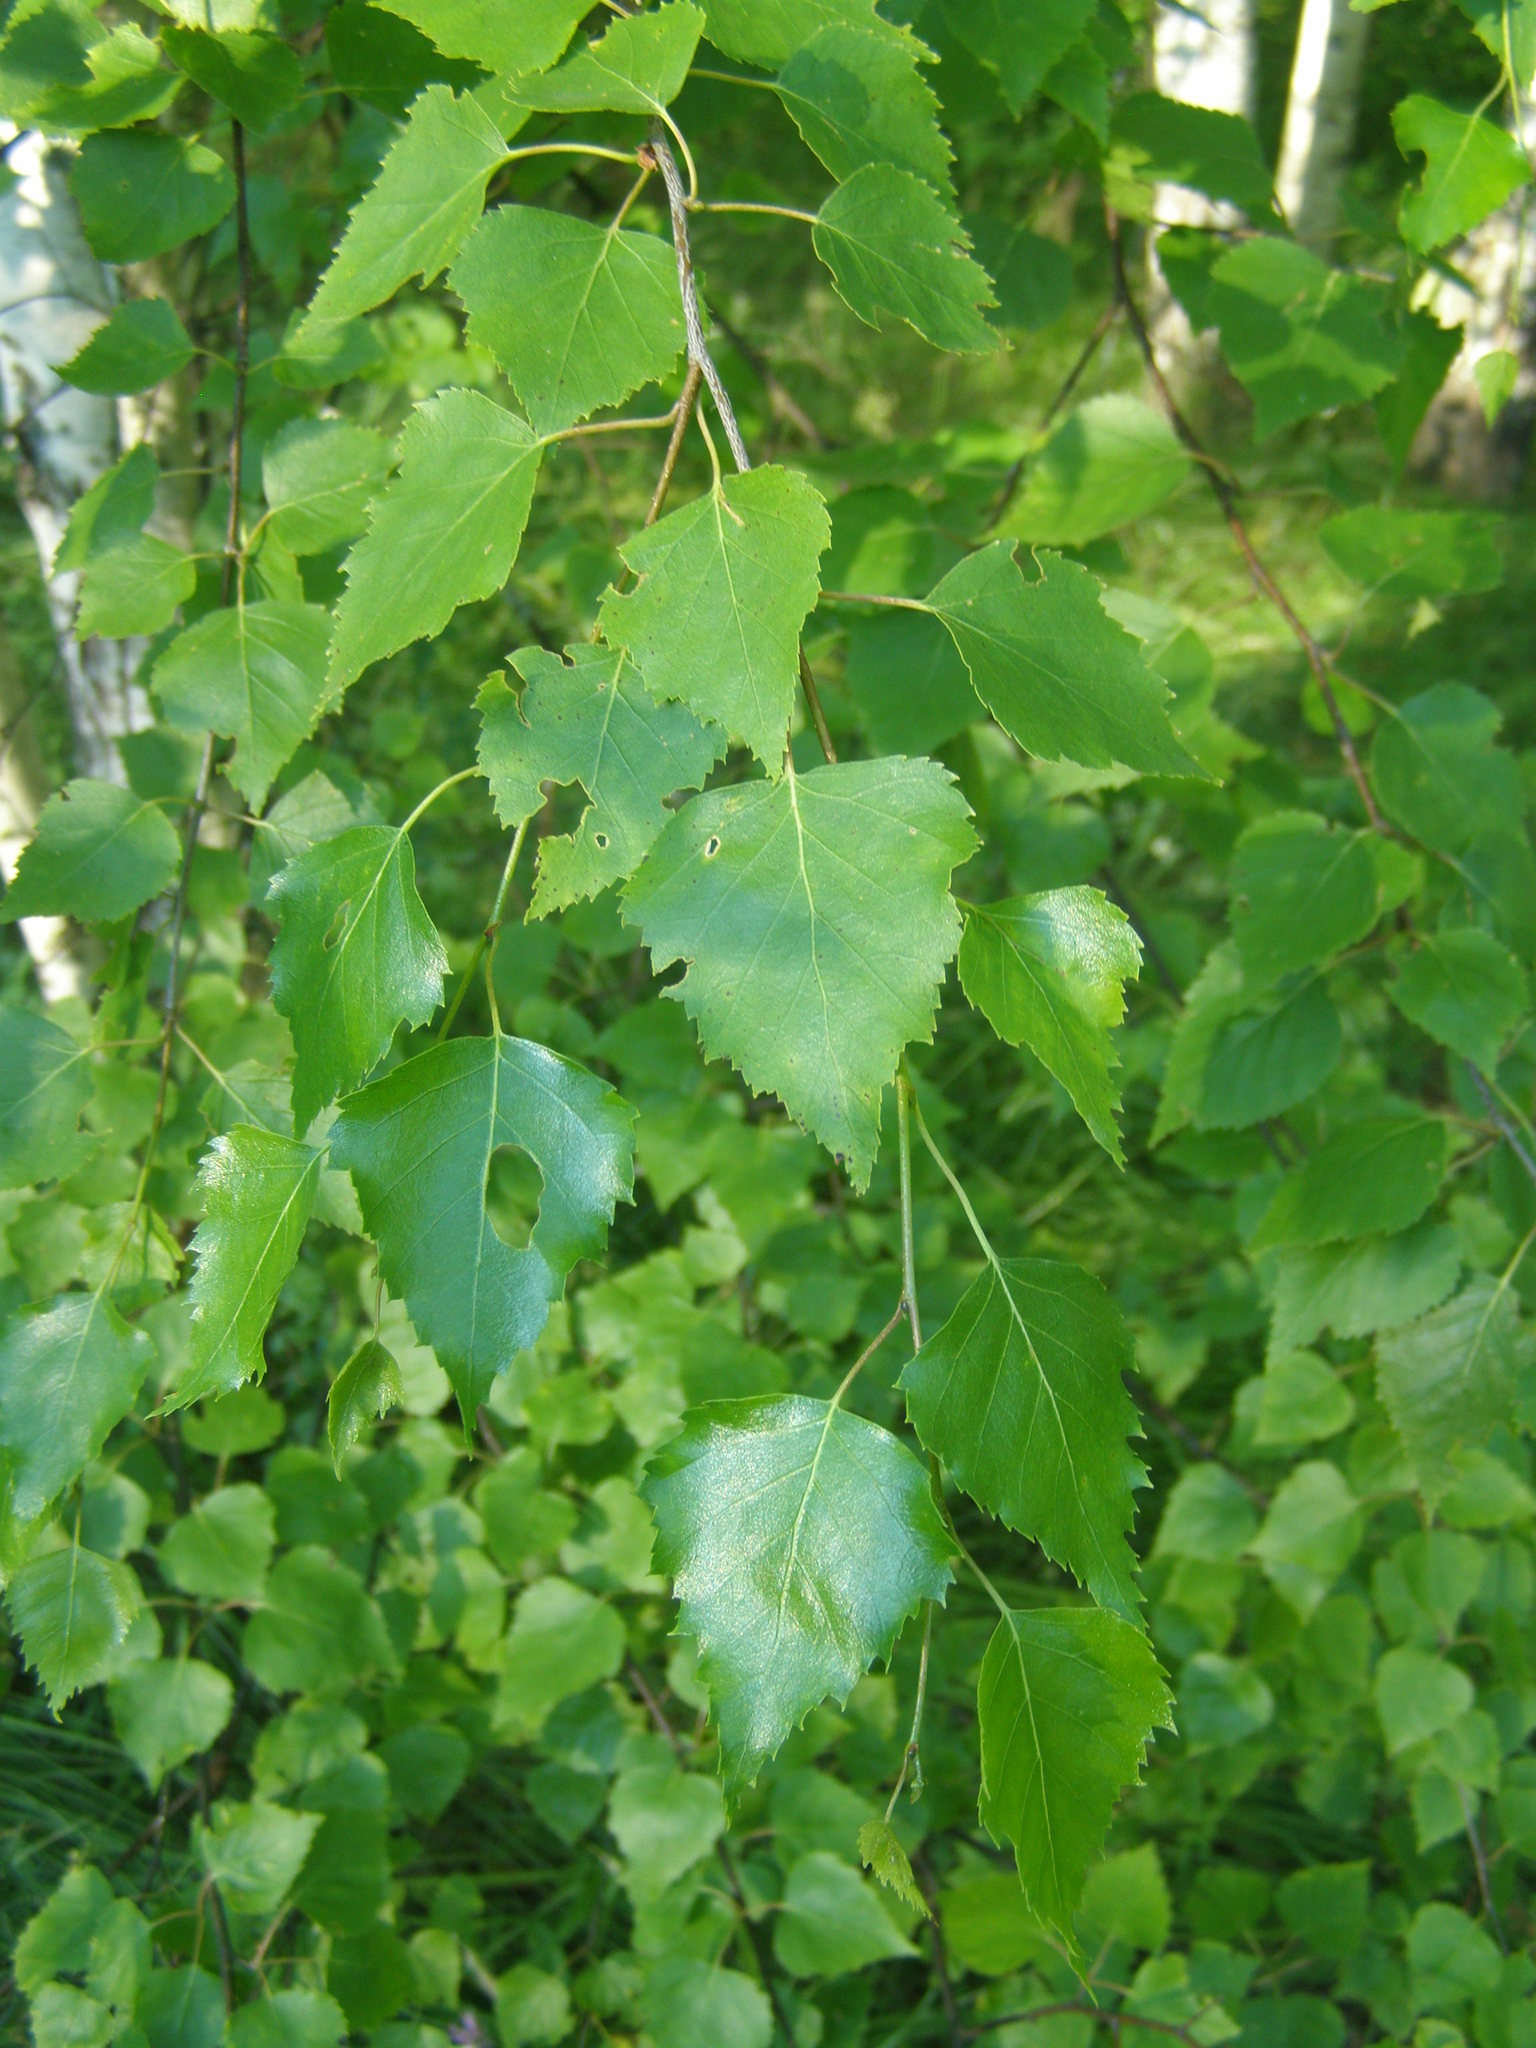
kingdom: Plantae
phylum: Tracheophyta
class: Magnoliopsida
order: Fagales
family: Betulaceae
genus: Betula
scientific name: Betula pendula
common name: Silver birch
